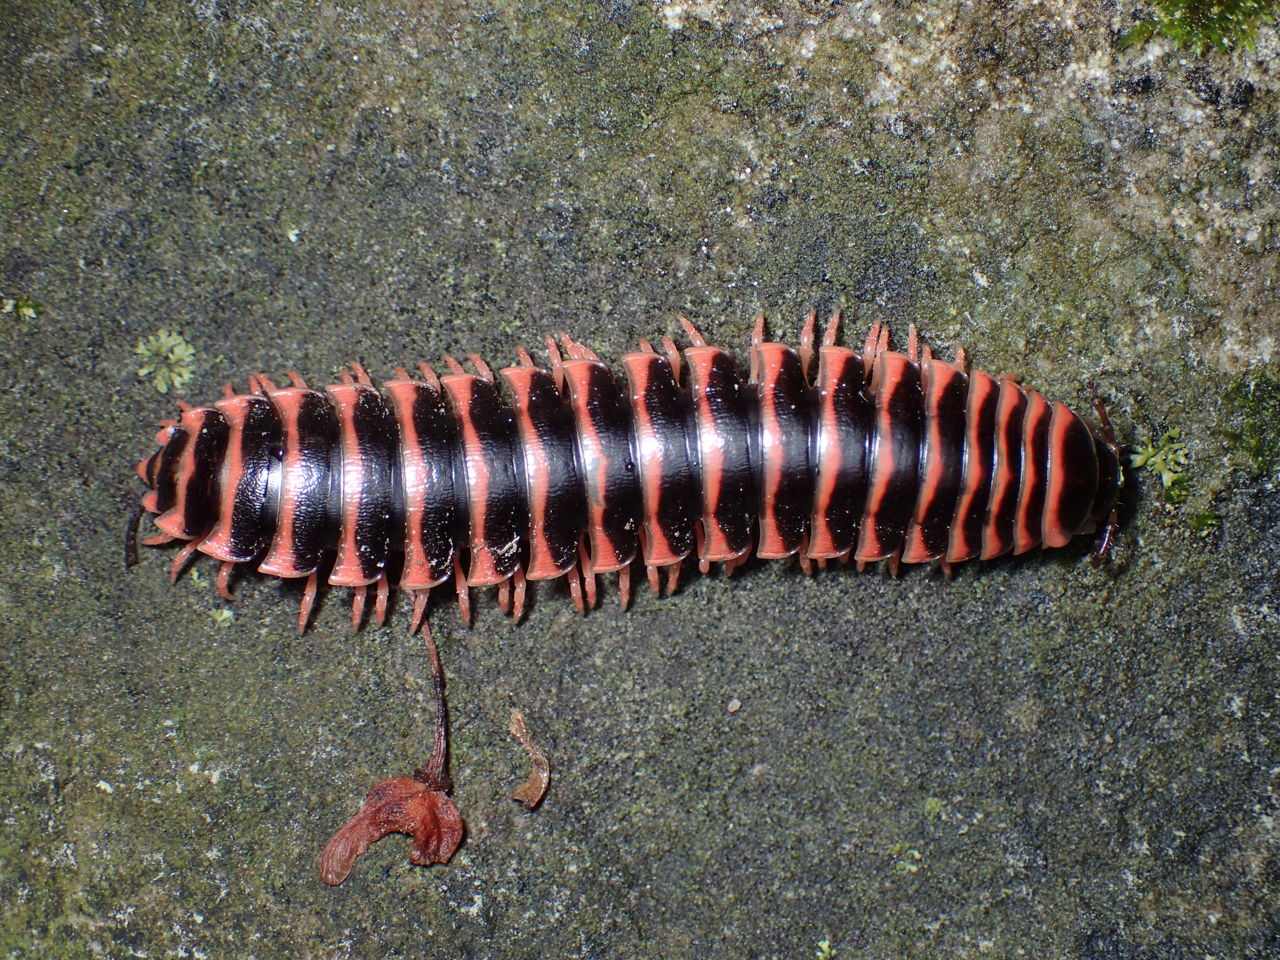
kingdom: Animalia
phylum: Arthropoda
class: Diplopoda
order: Polydesmida
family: Xystodesmidae
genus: Cherokia
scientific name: Cherokia georgiana
